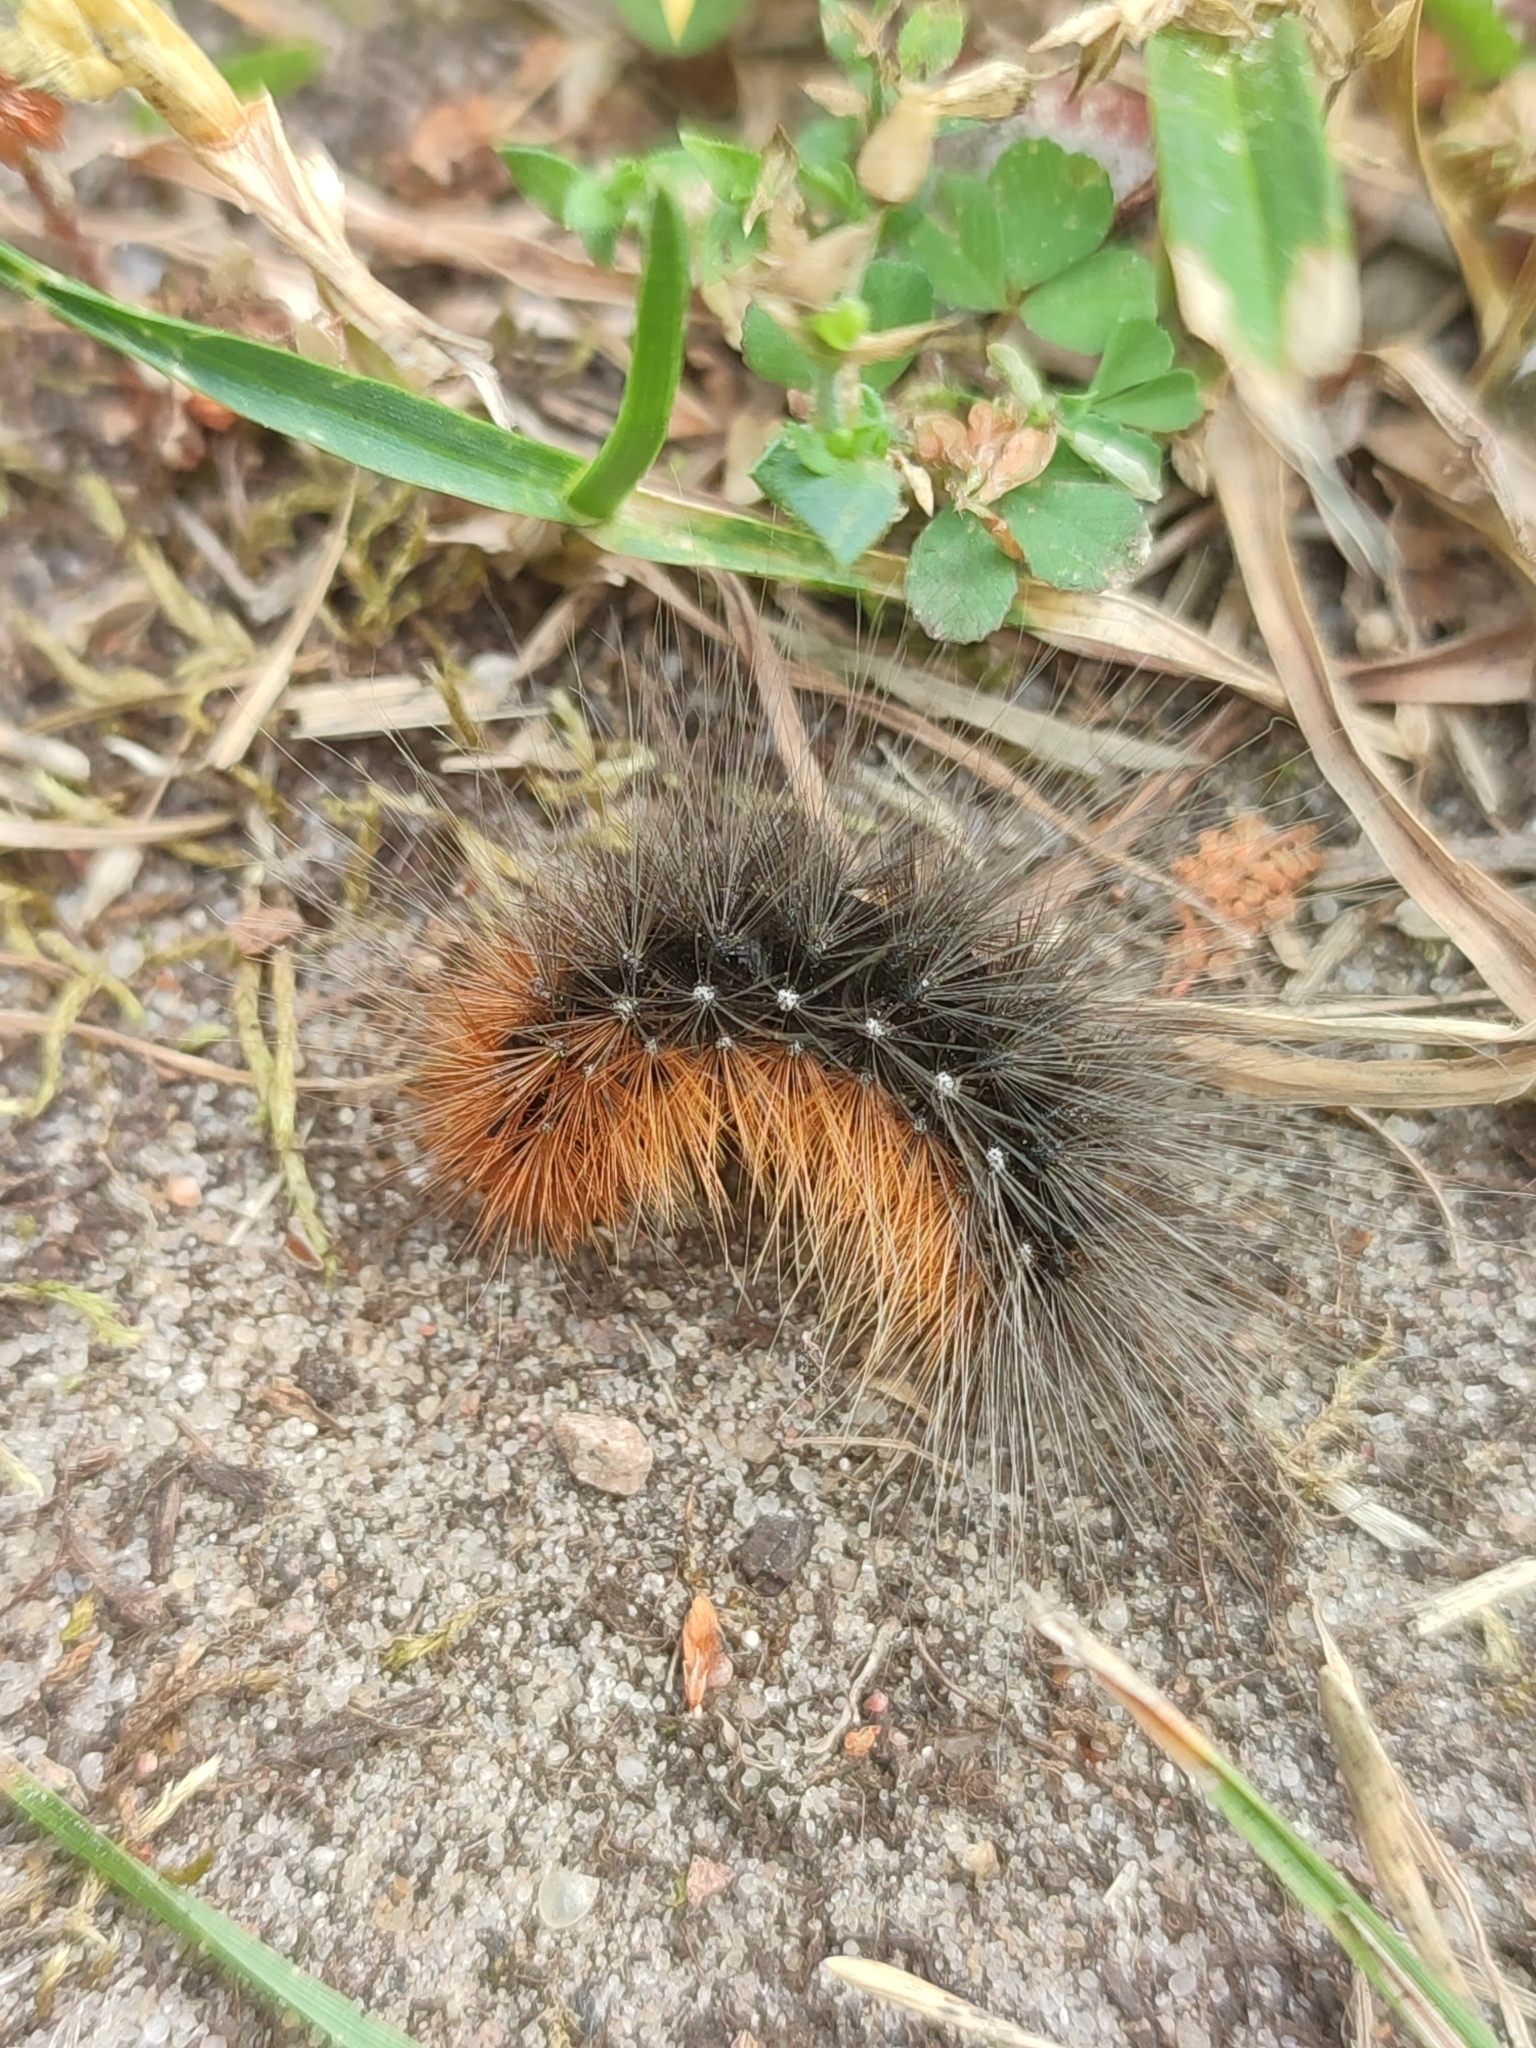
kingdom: Animalia
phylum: Arthropoda
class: Insecta
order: Lepidoptera
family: Erebidae
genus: Arctia
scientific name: Arctia caja
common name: Garden tiger
